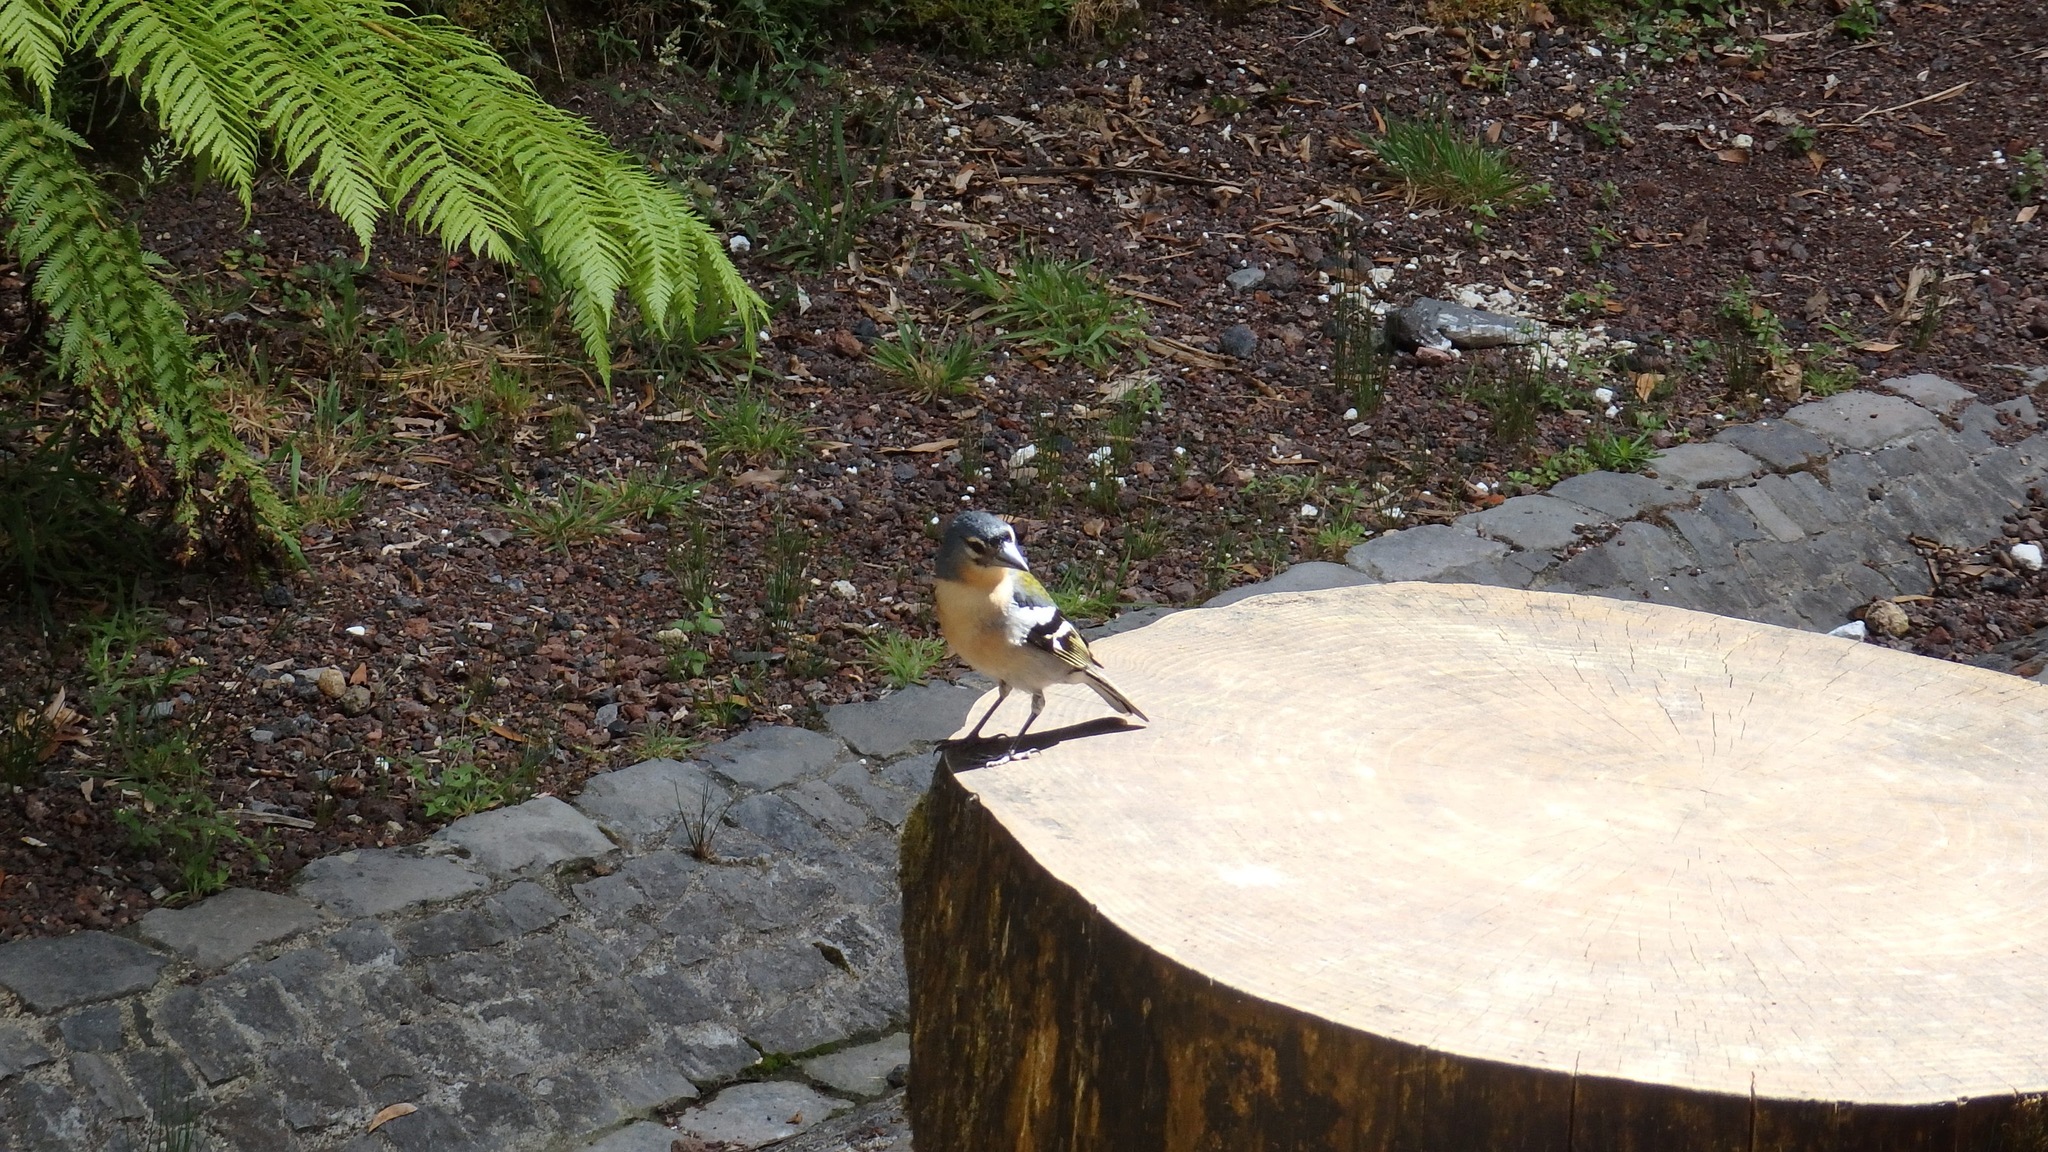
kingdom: Animalia
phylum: Chordata
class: Aves
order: Passeriformes
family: Fringillidae
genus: Fringilla
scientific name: Fringilla moreletti
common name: Azores chaffinch
